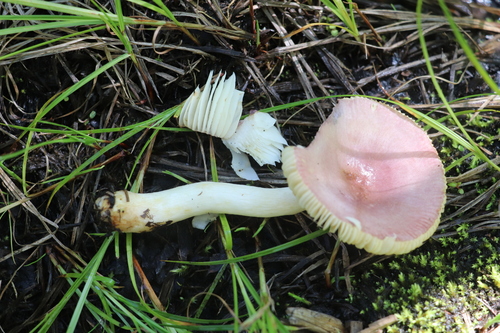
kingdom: Fungi
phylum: Basidiomycota
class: Agaricomycetes
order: Russulales
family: Russulaceae
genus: Russula
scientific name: Russula
